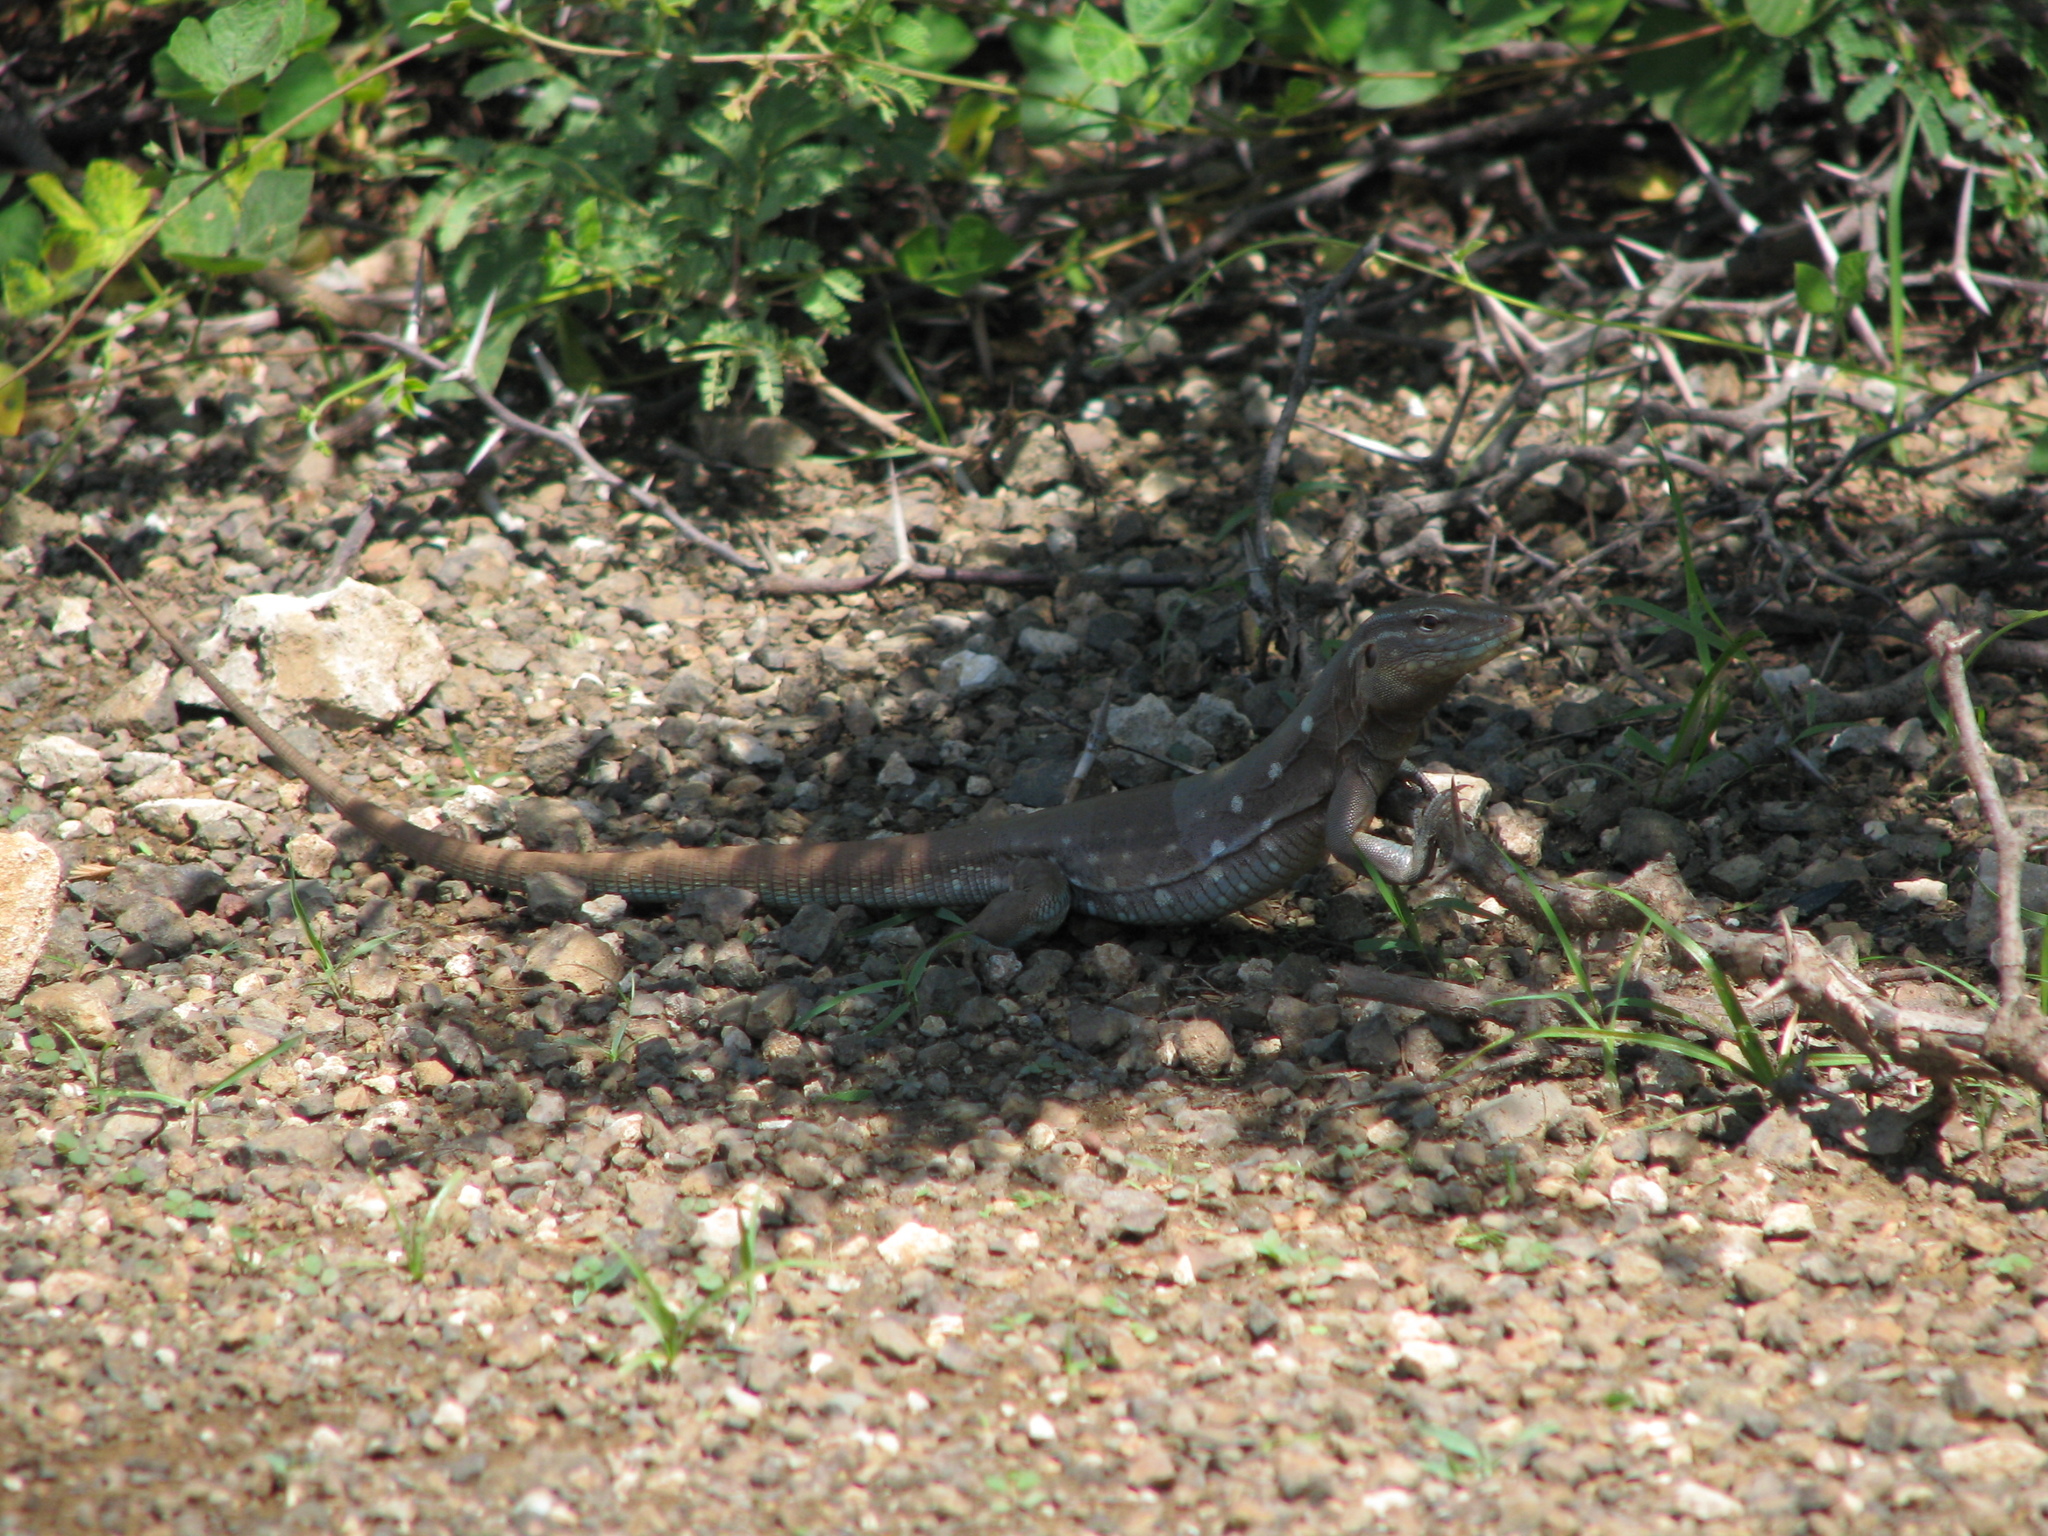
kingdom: Animalia
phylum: Chordata
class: Squamata
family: Teiidae
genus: Cnemidophorus
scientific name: Cnemidophorus murinus
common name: Laurent's whiptail
